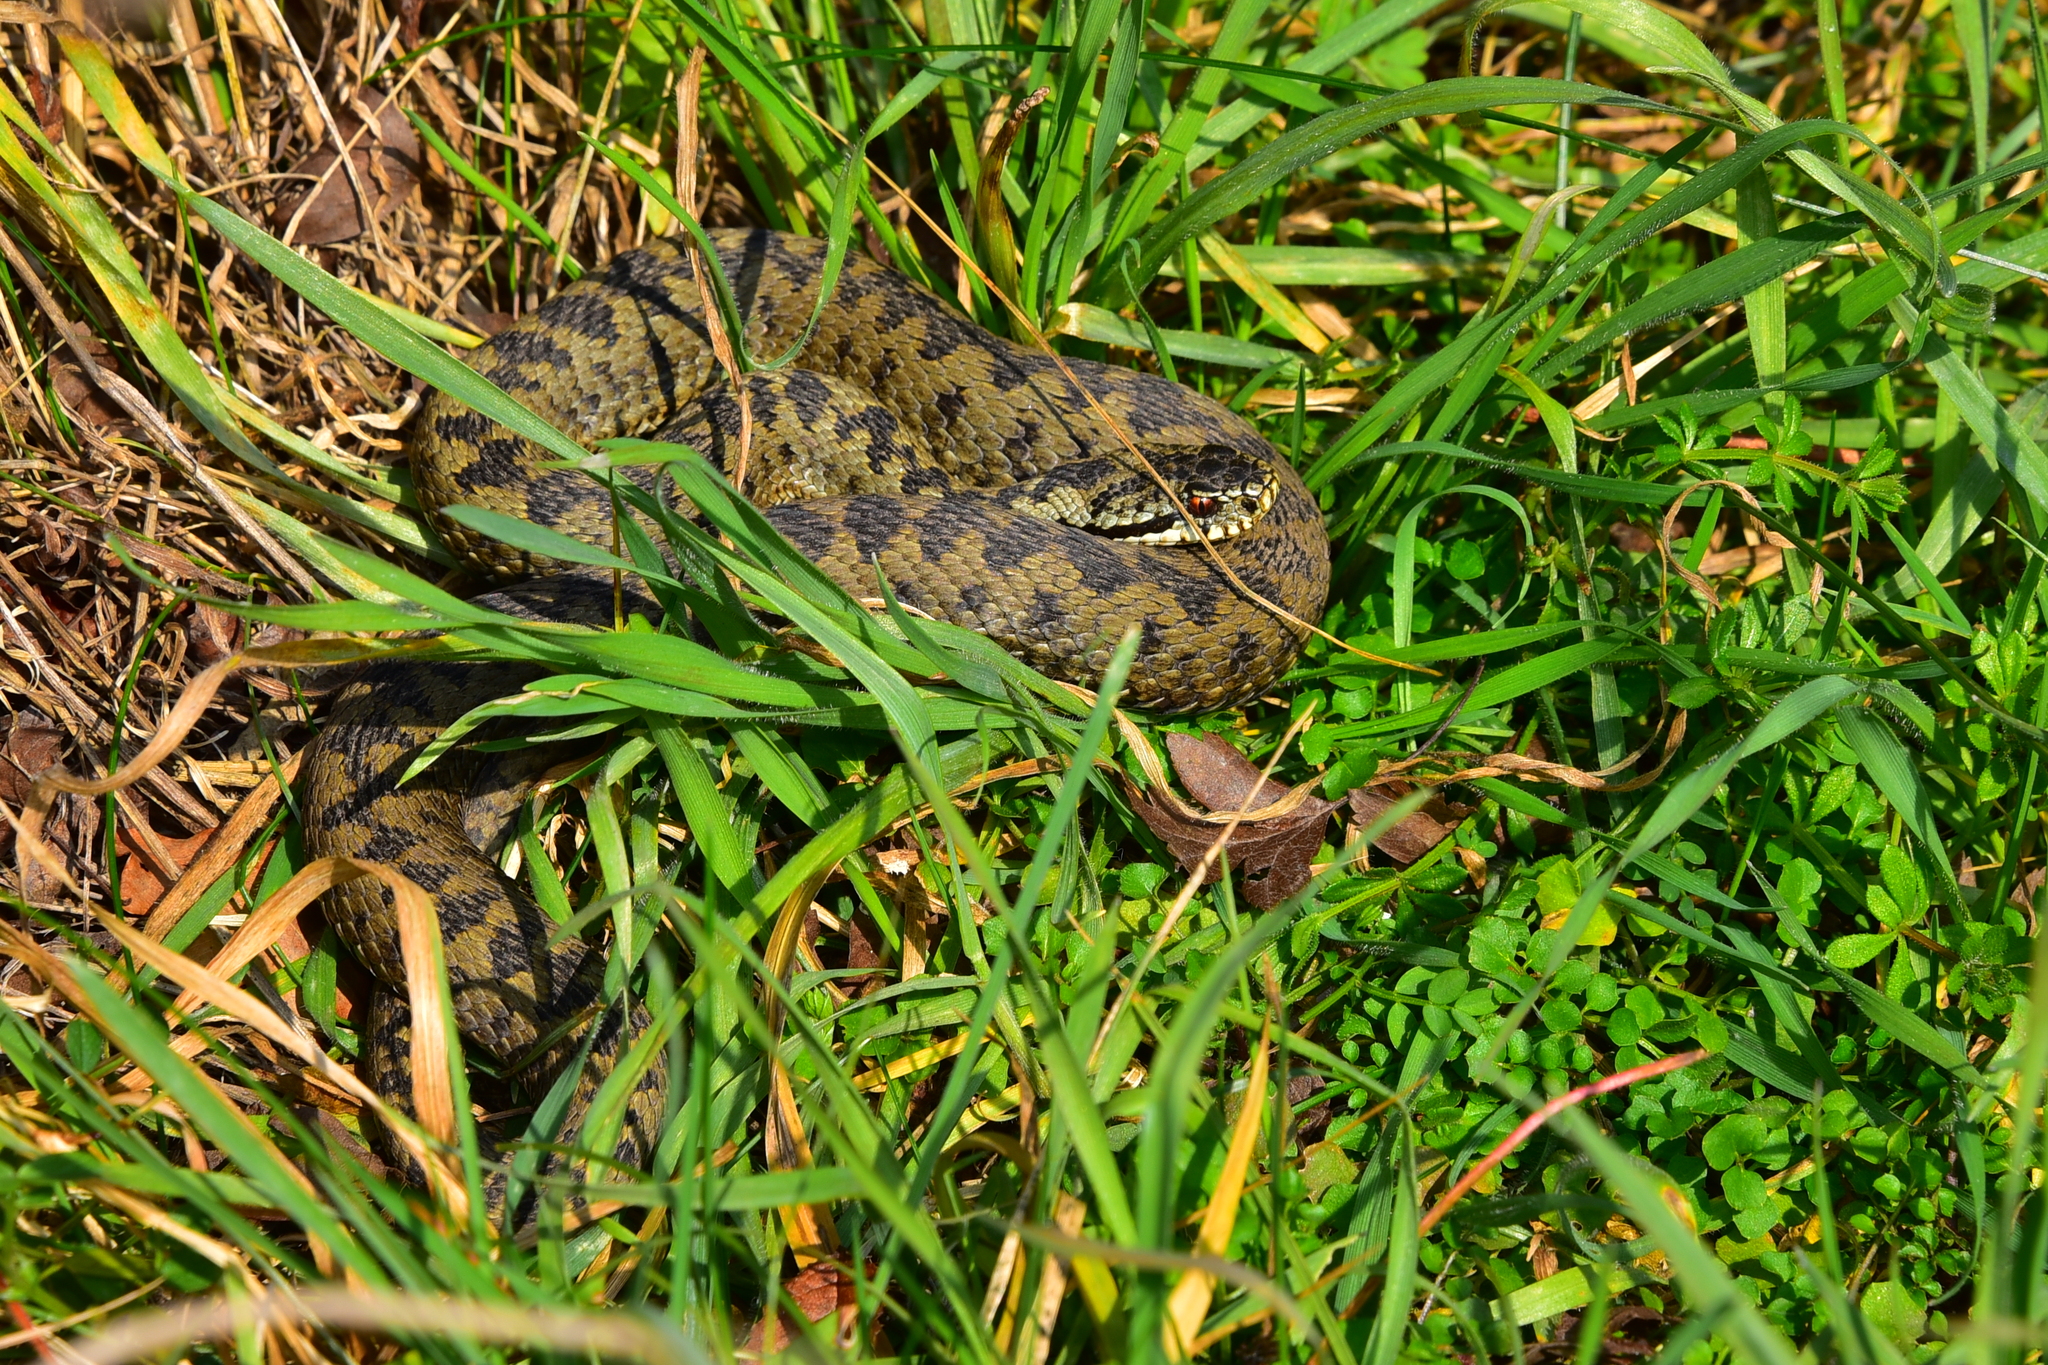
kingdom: Animalia
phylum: Chordata
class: Squamata
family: Viperidae
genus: Vipera
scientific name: Vipera berus
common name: Adder
